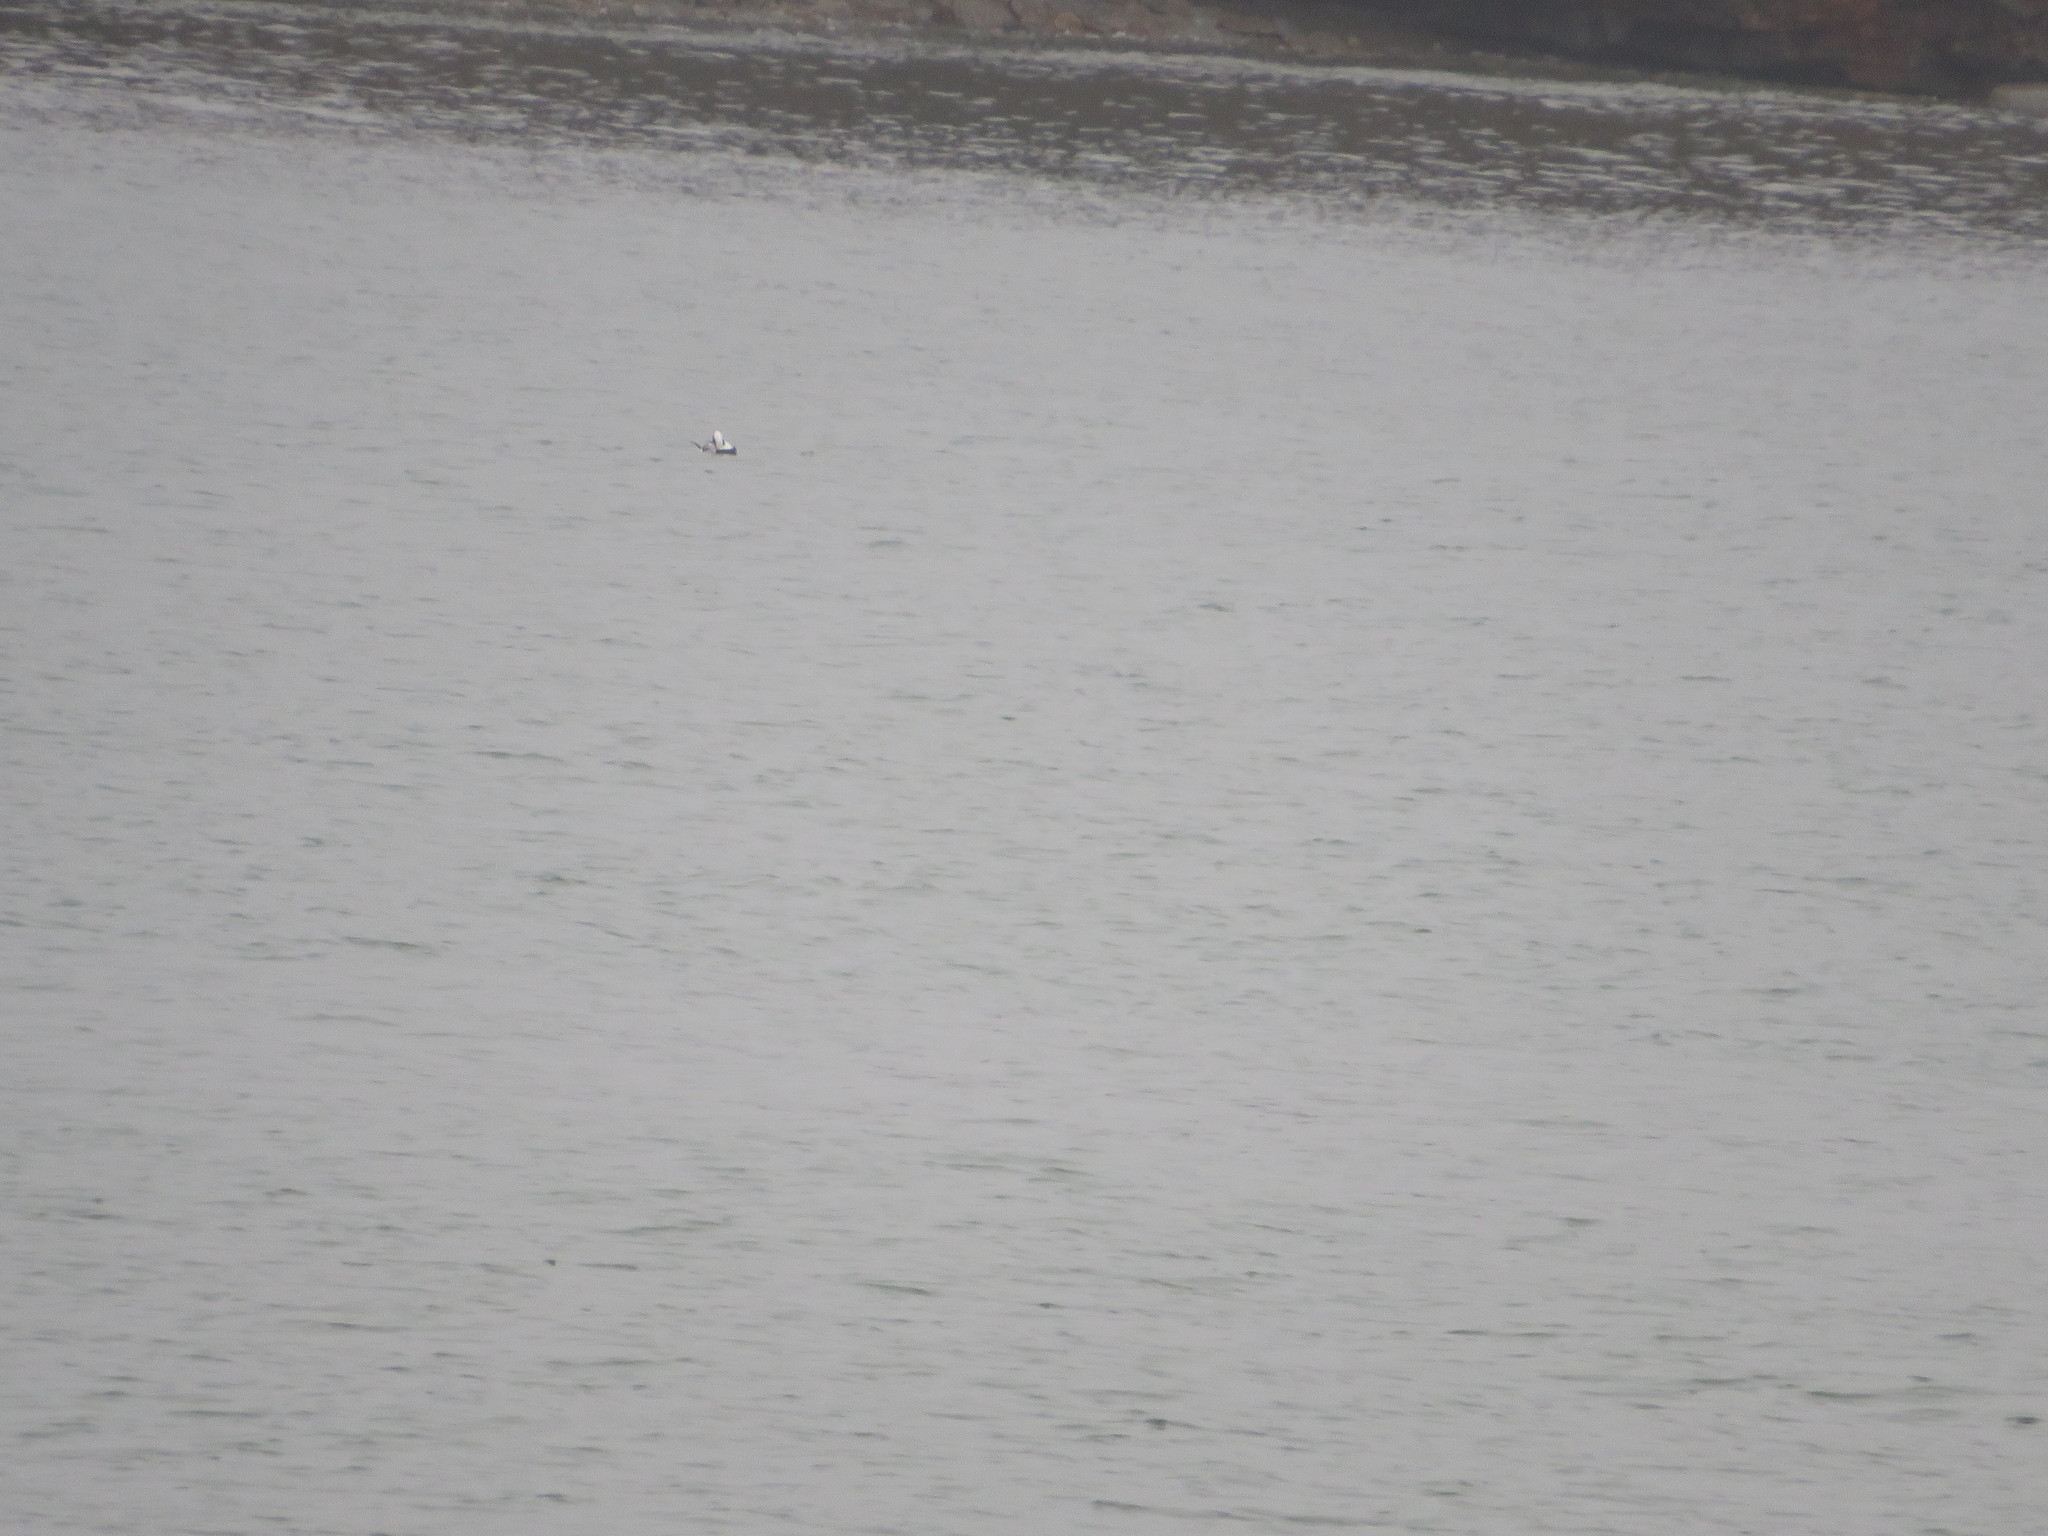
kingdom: Animalia
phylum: Chordata
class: Aves
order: Anseriformes
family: Anatidae
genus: Clangula
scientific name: Clangula hyemalis
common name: Long-tailed duck
